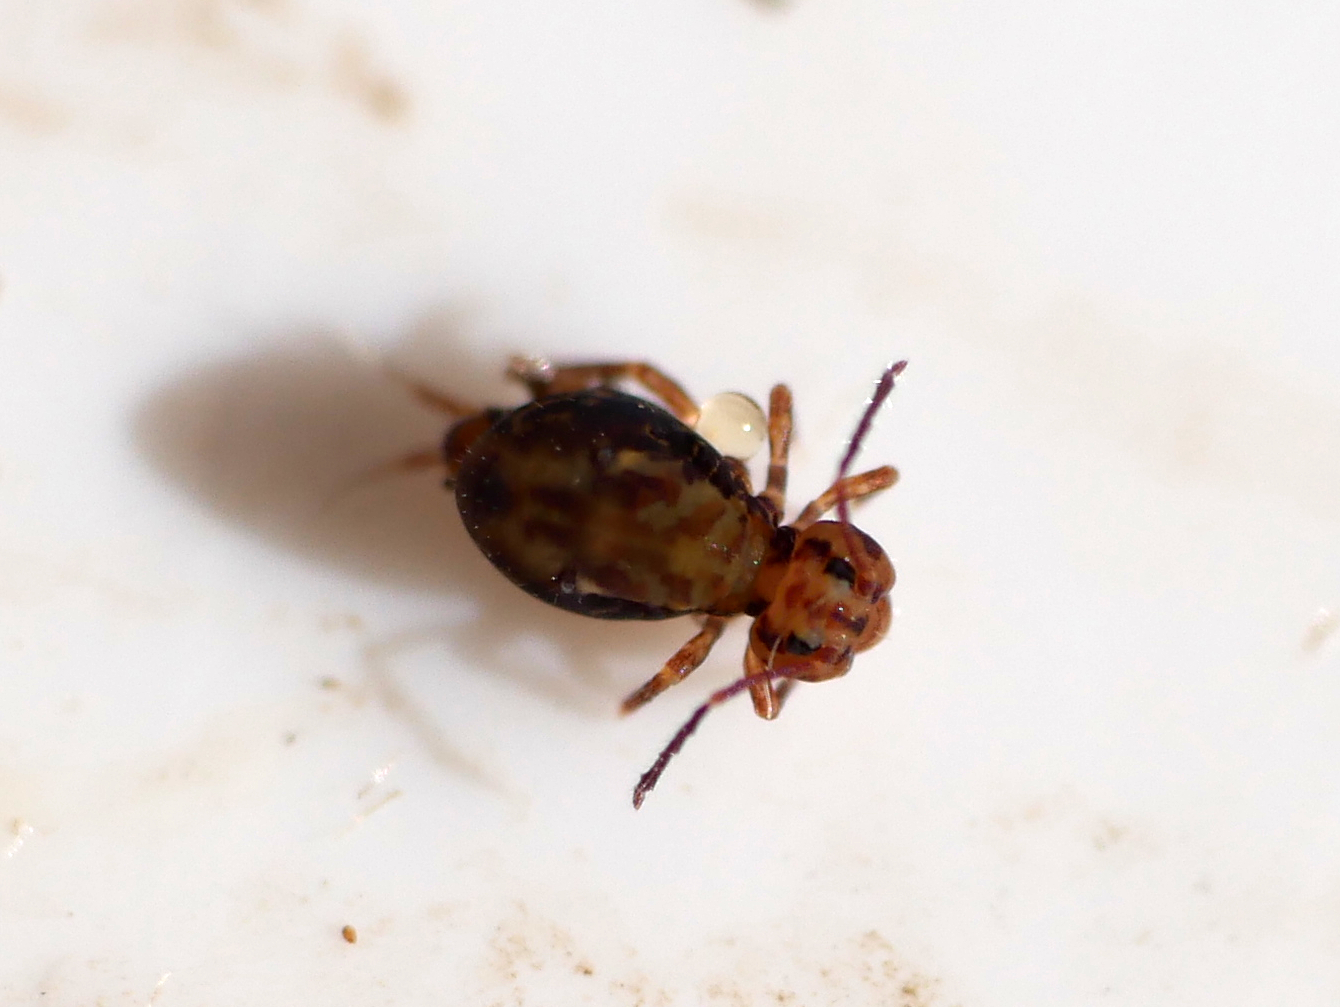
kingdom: Animalia
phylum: Arthropoda
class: Collembola
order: Symphypleona
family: Dicyrtomidae
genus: Dicyrtomina
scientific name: Dicyrtomina saundersi
